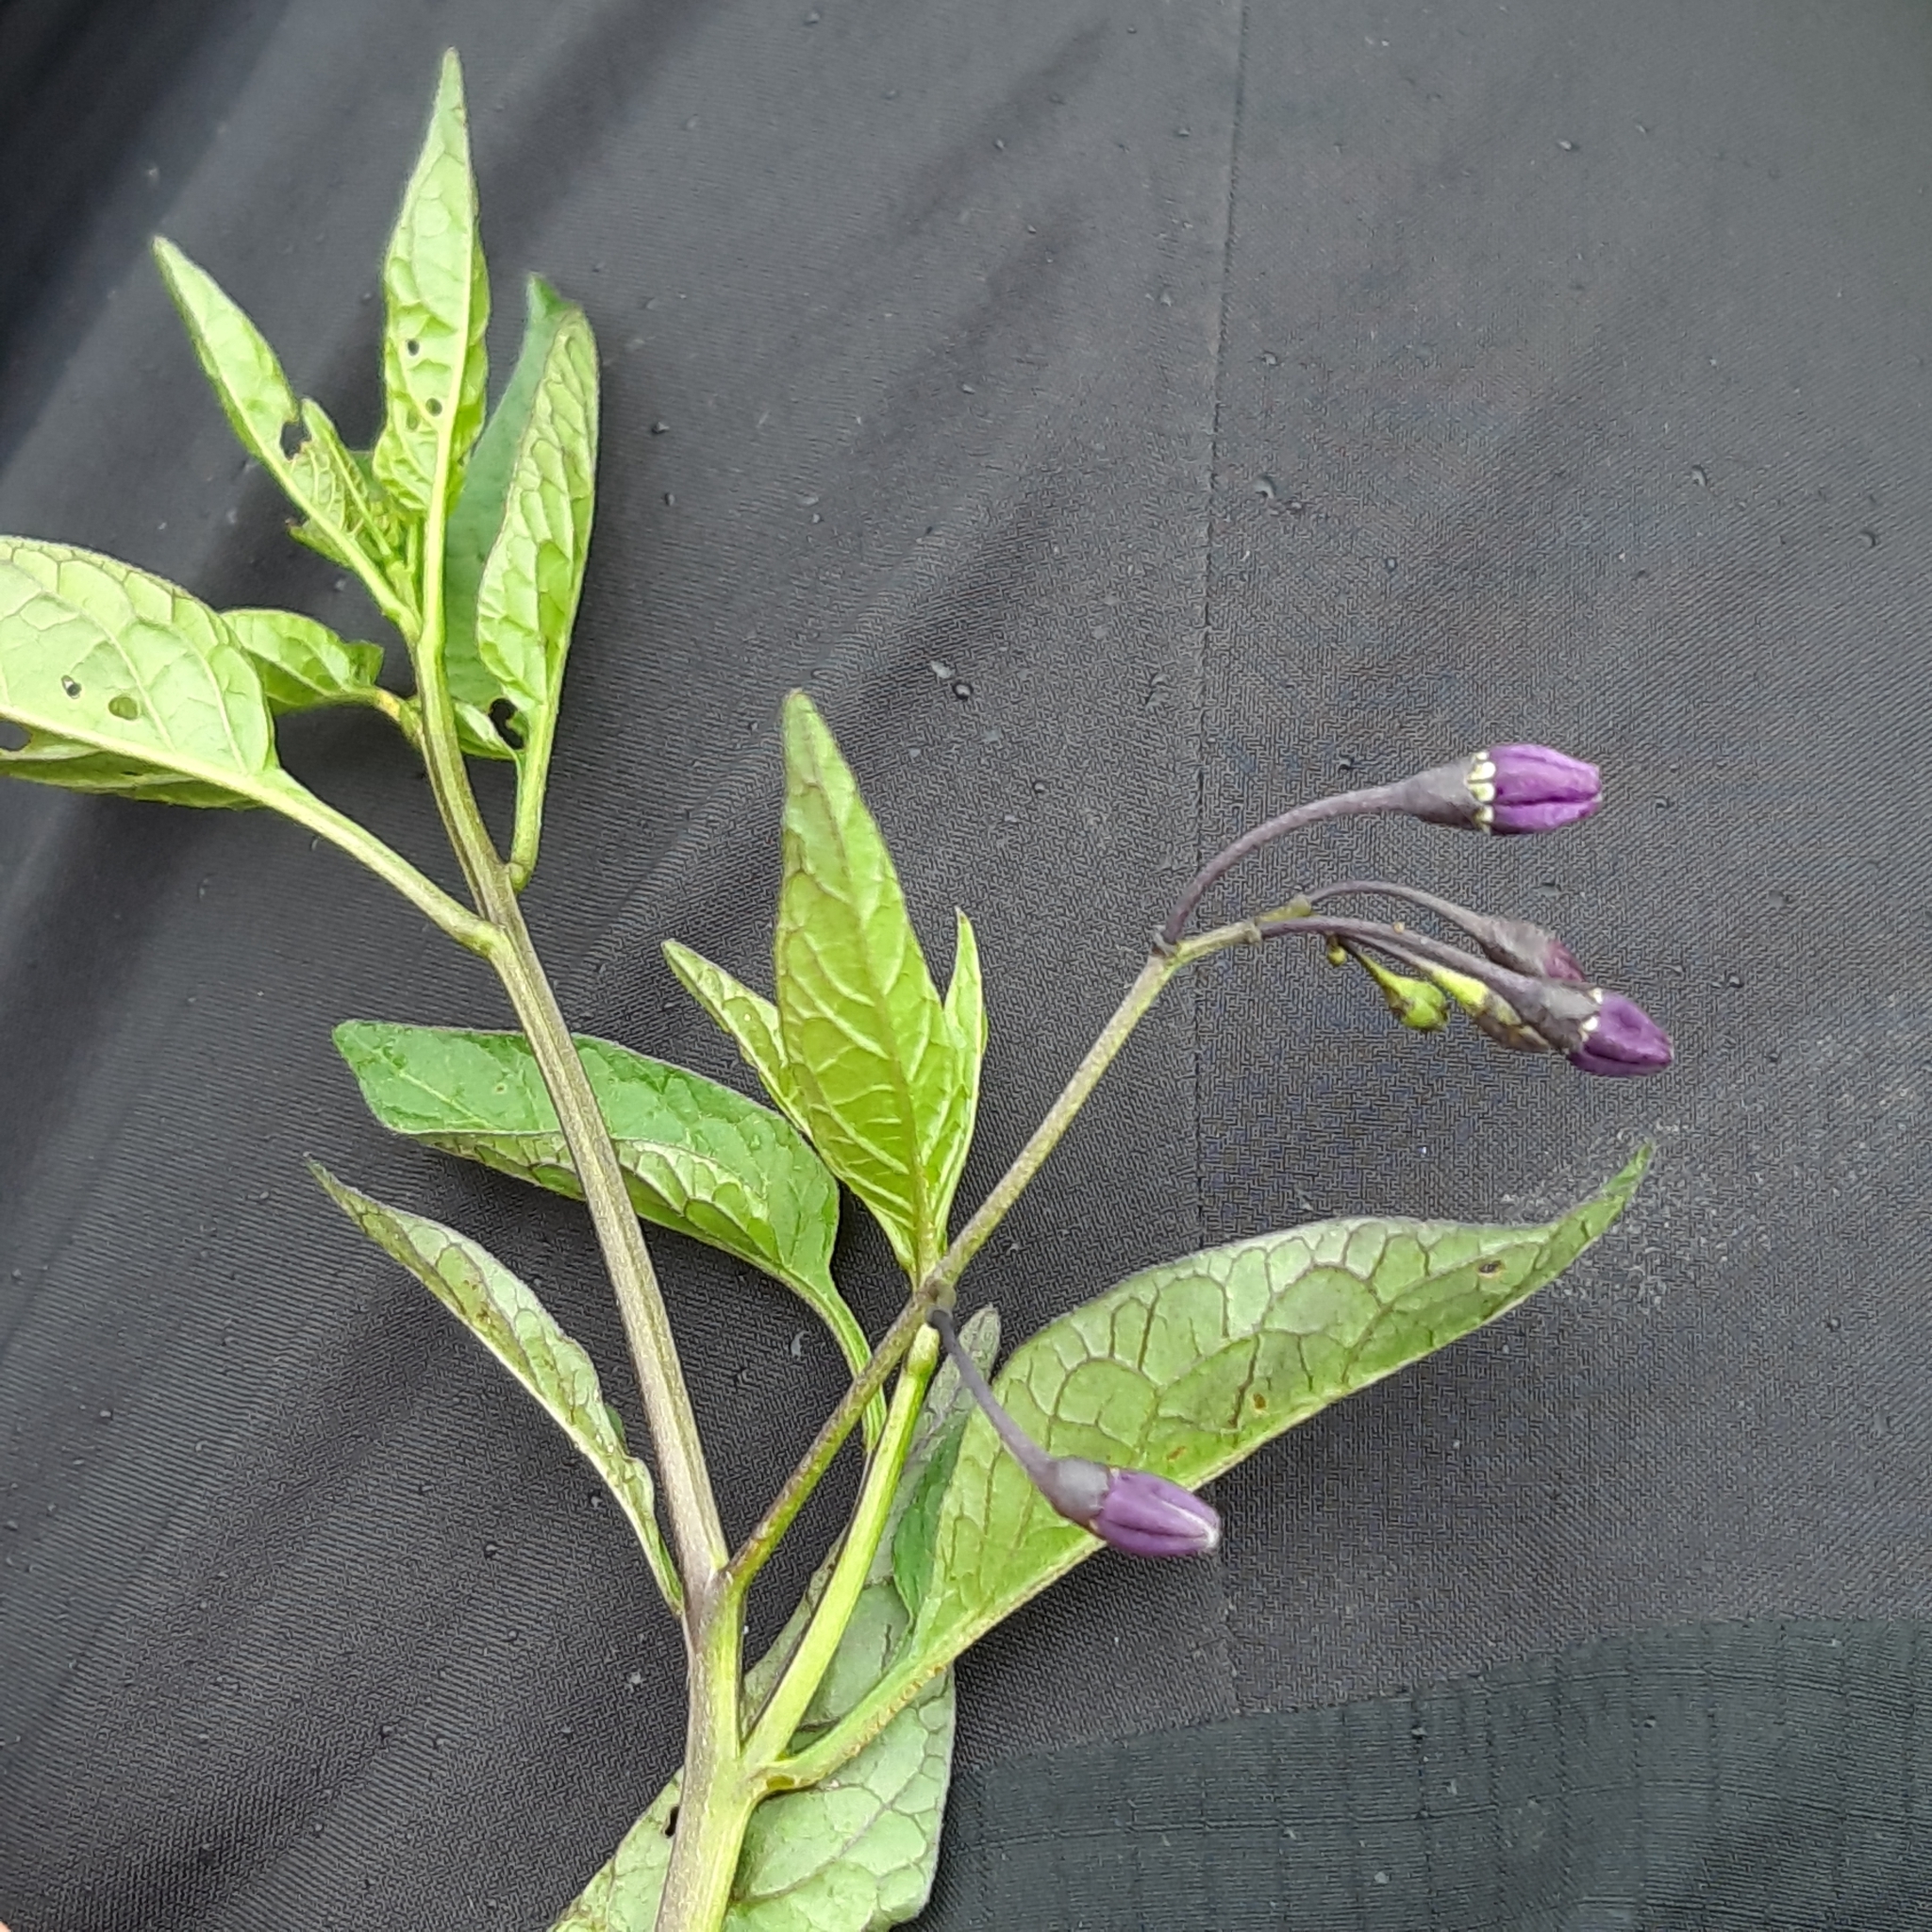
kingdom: Plantae
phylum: Tracheophyta
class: Magnoliopsida
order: Solanales
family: Solanaceae
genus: Solanum
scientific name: Solanum dulcamara
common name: Climbing nightshade
